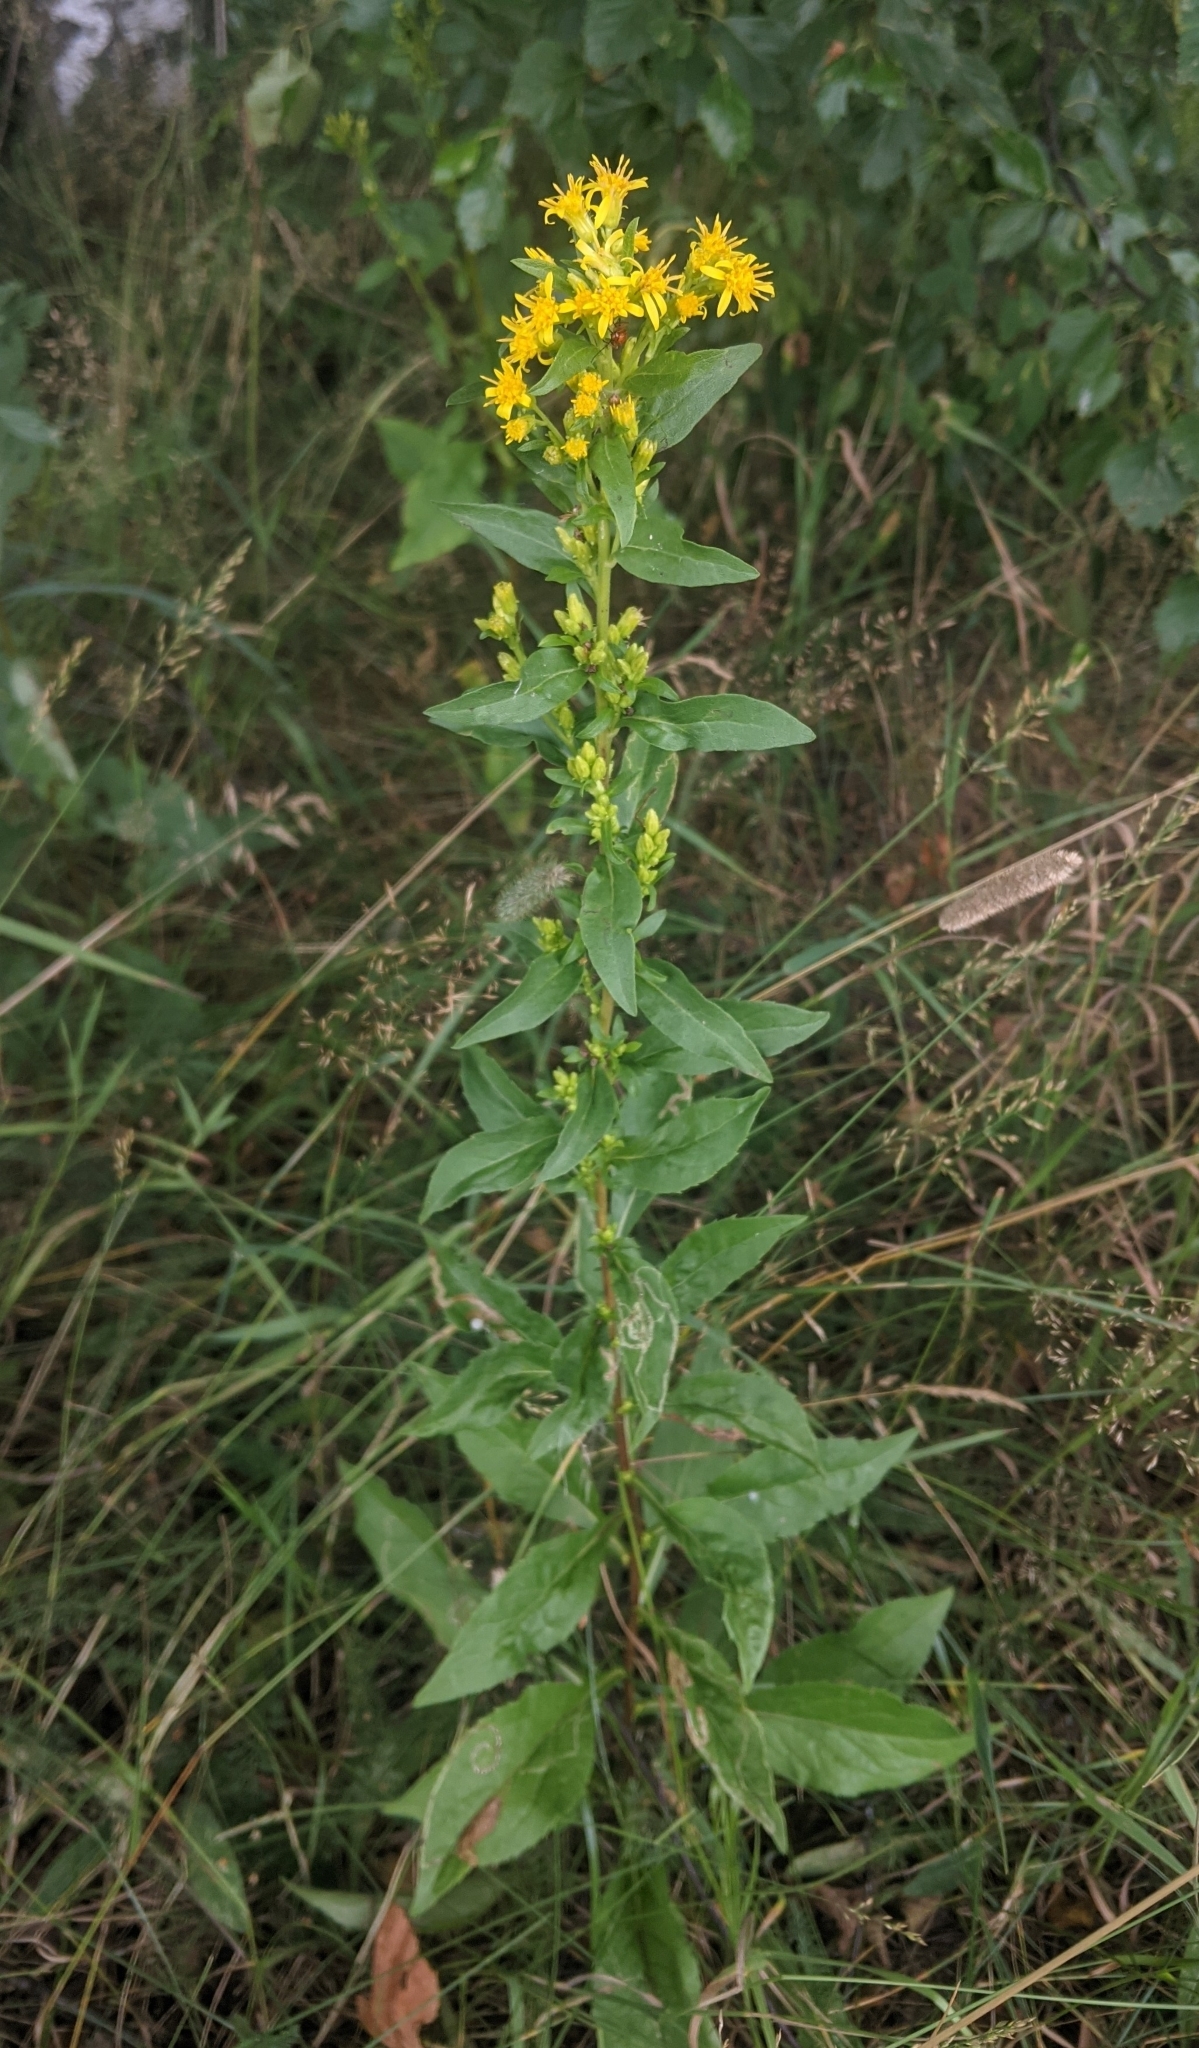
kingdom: Plantae
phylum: Tracheophyta
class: Magnoliopsida
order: Asterales
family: Asteraceae
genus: Solidago
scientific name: Solidago virgaurea
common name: Goldenrod
